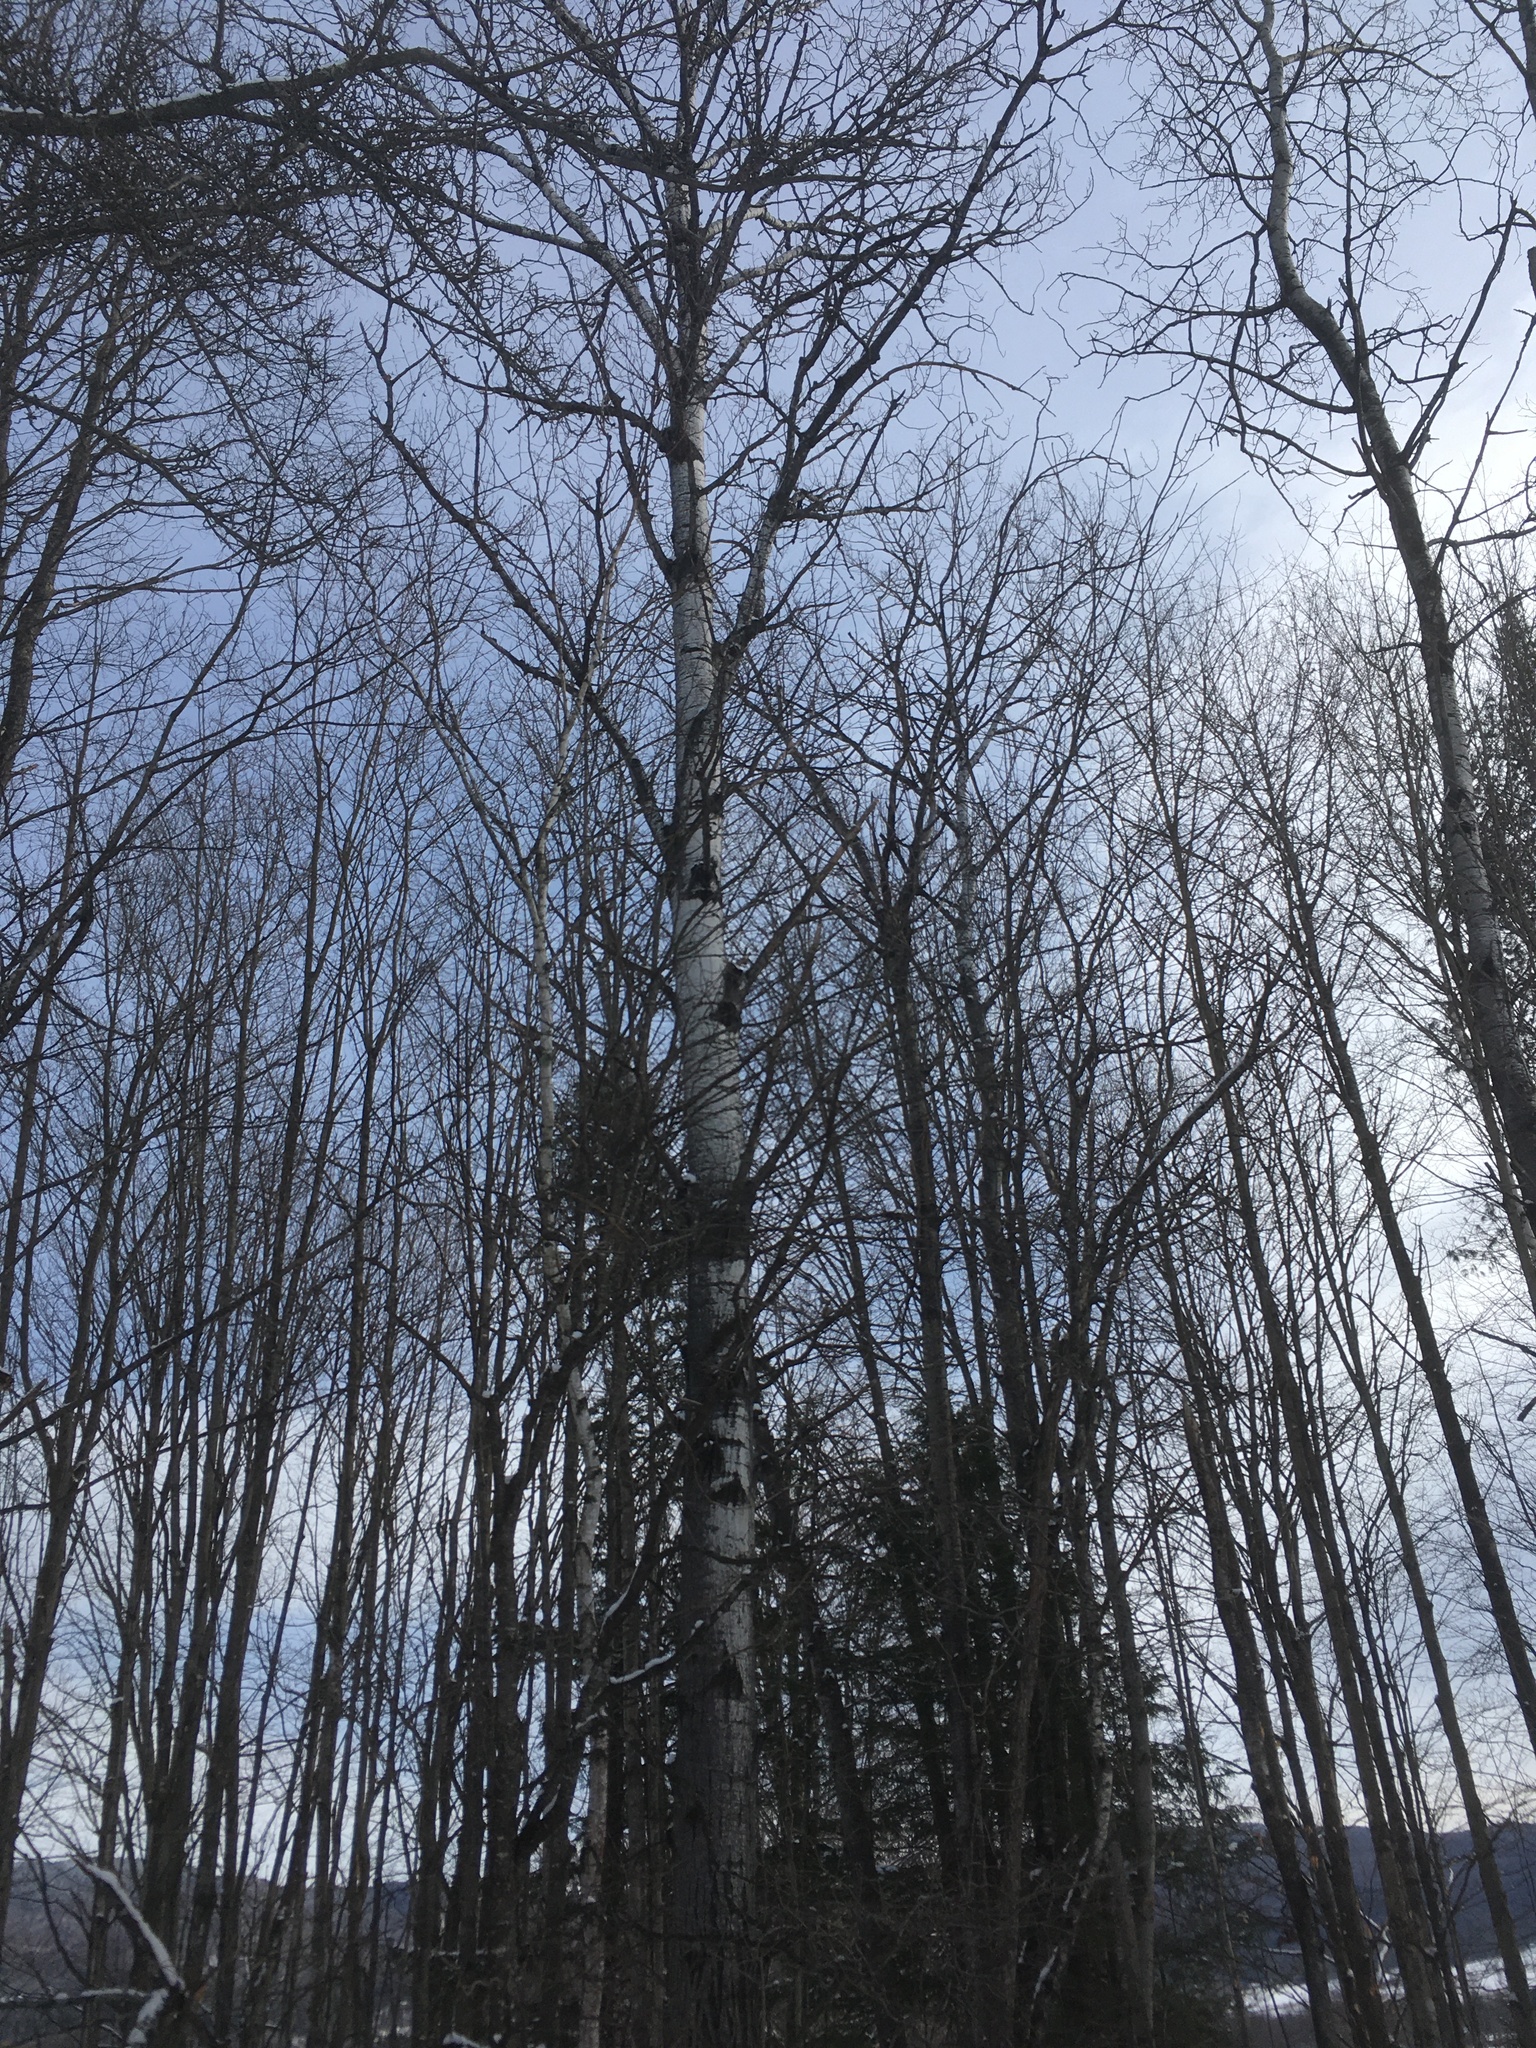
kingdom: Plantae
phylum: Tracheophyta
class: Magnoliopsida
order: Malpighiales
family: Salicaceae
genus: Populus
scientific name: Populus tremuloides
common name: Quaking aspen
